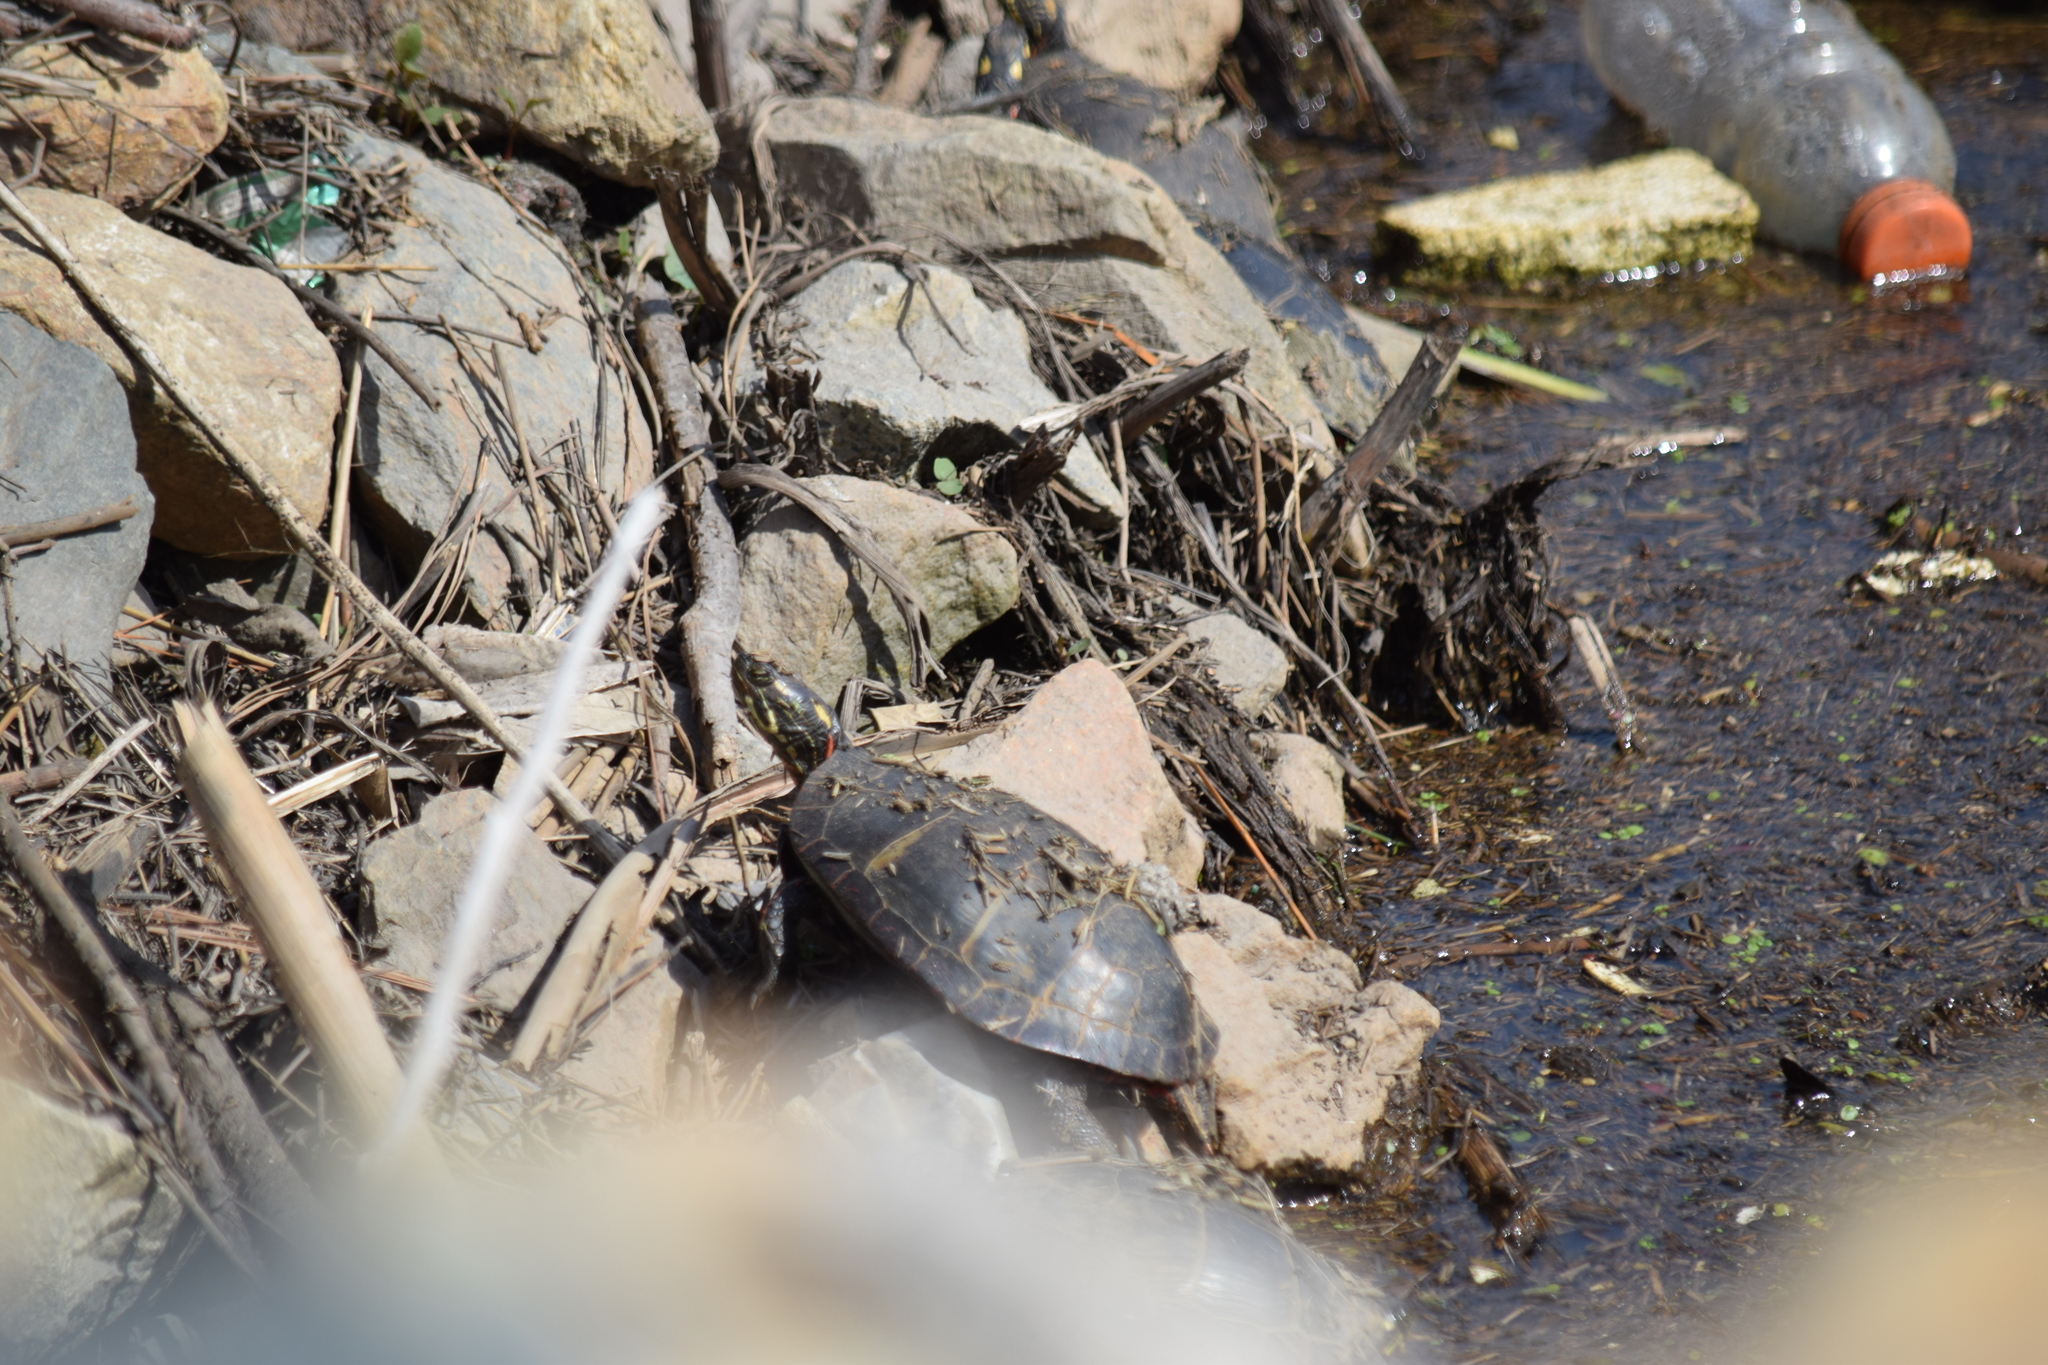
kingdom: Animalia
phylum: Chordata
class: Testudines
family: Emydidae
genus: Chrysemys
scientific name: Chrysemys picta
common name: Painted turtle
